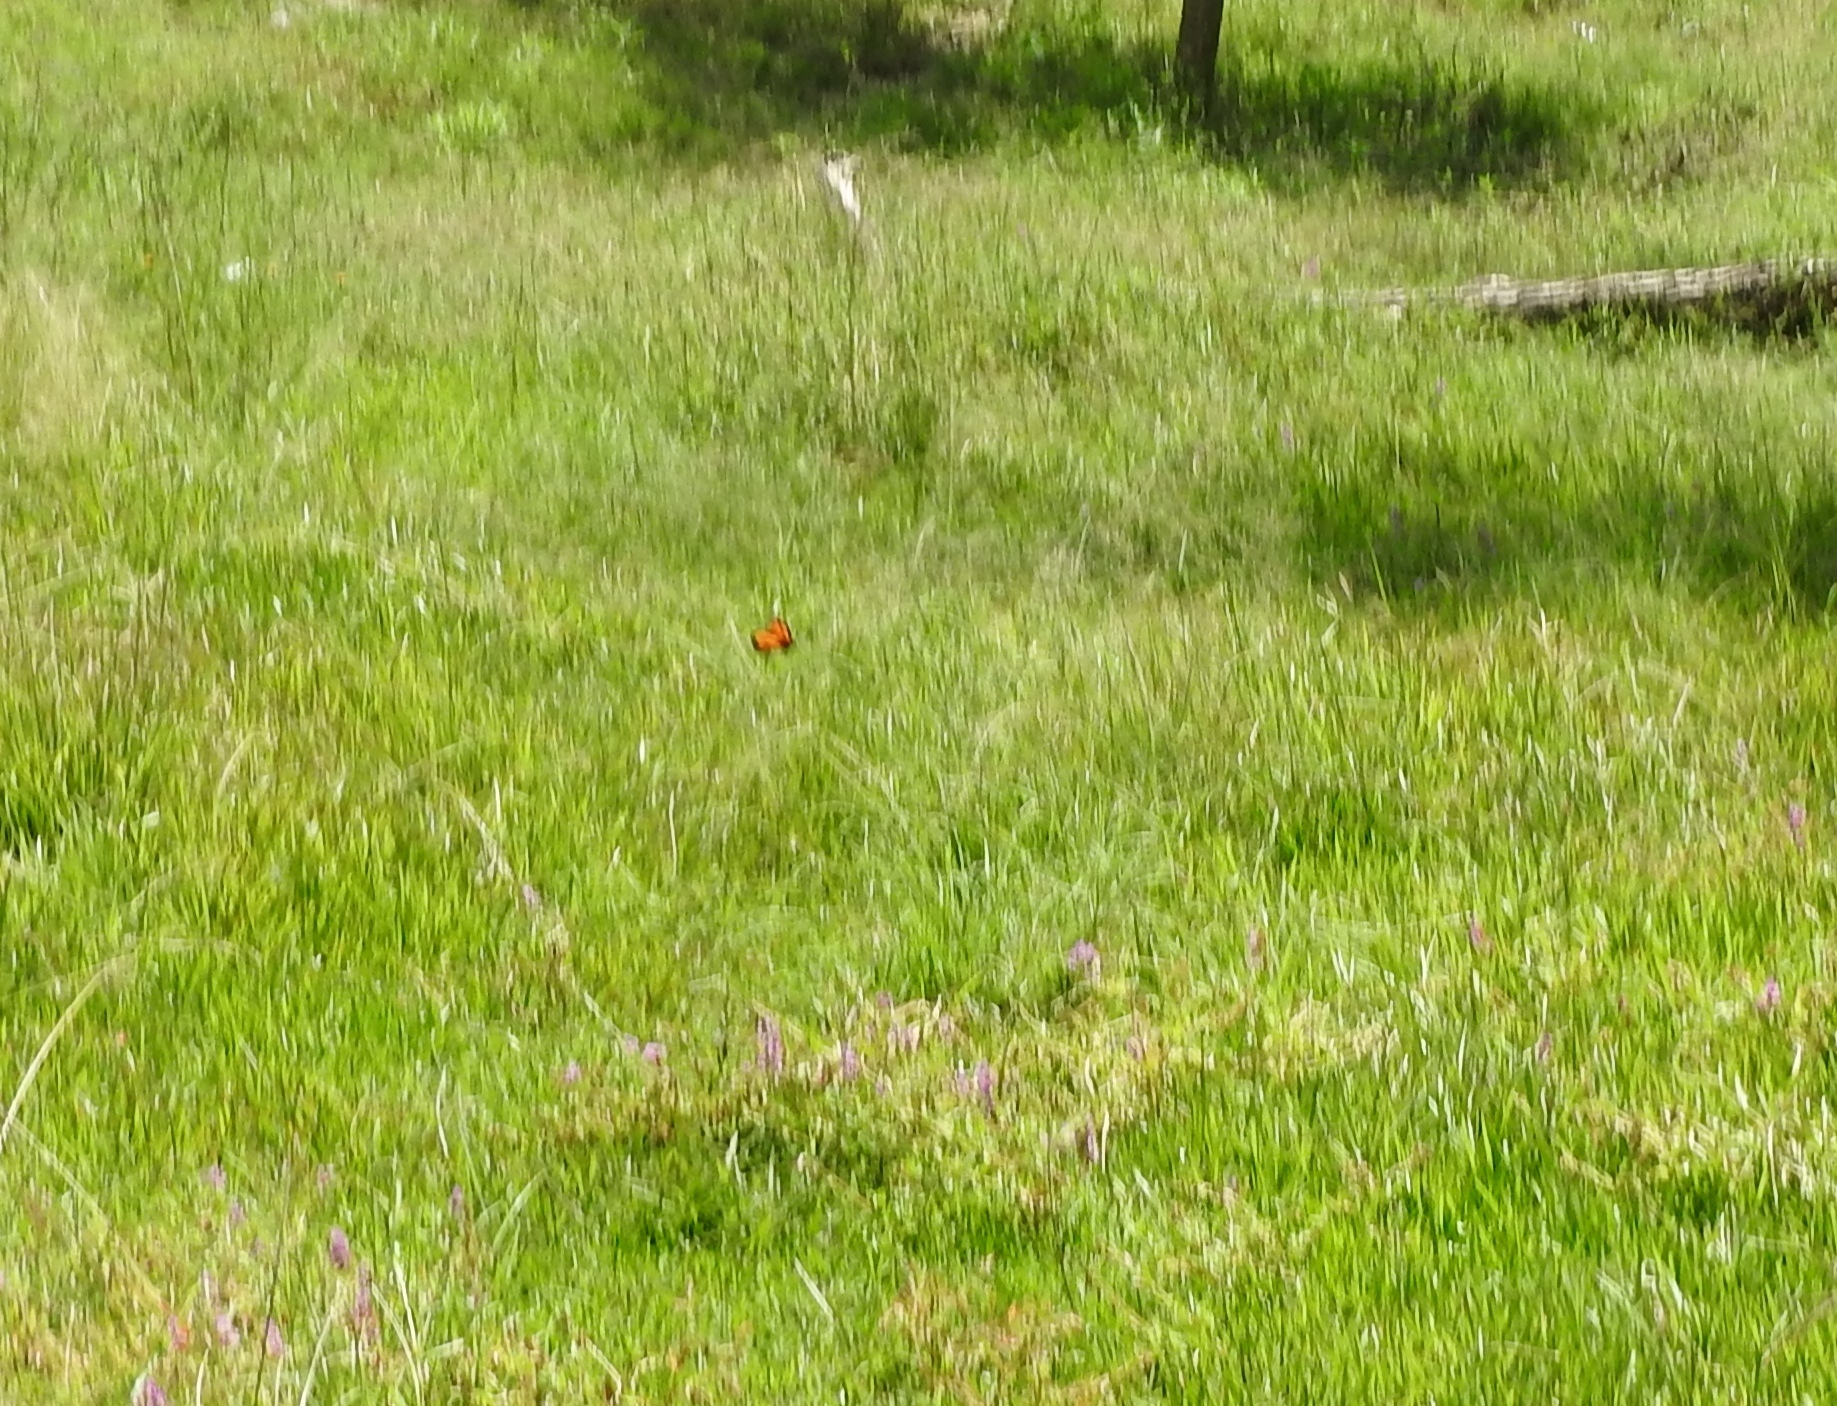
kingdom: Animalia
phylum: Arthropoda
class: Insecta
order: Lepidoptera
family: Nymphalidae
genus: Danaus
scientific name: Danaus plexippus
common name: Monarch
